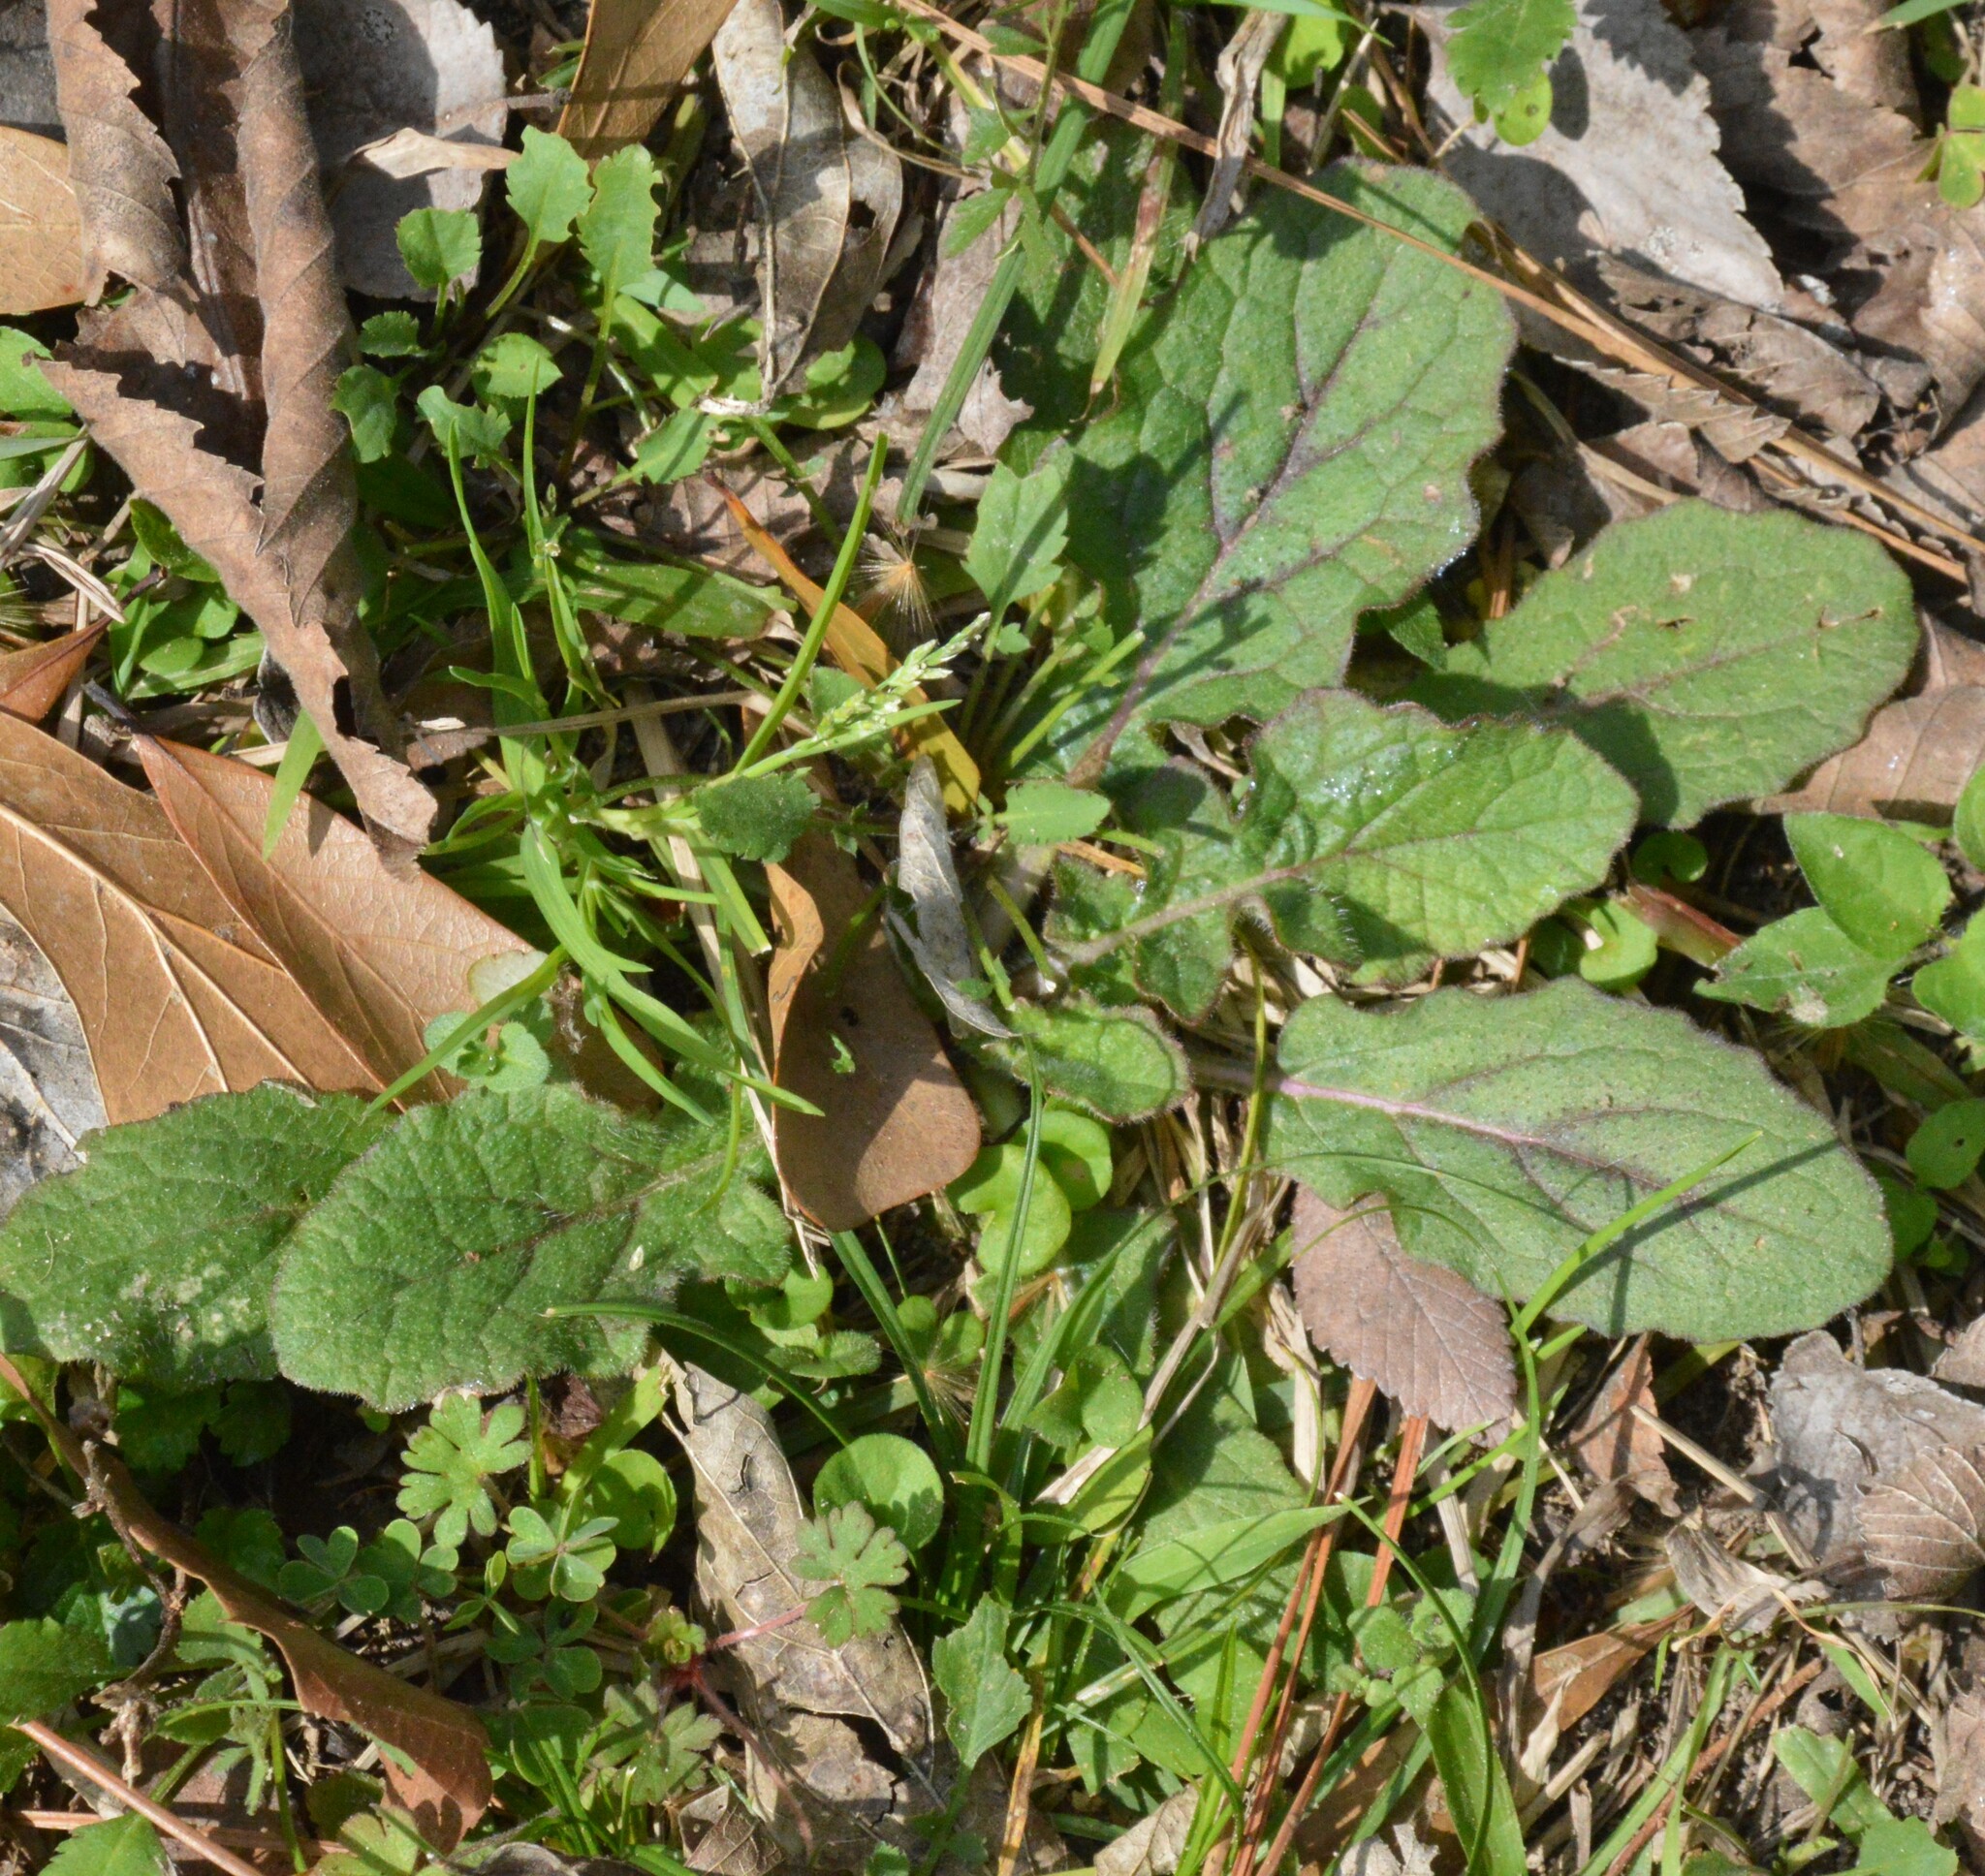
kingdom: Plantae
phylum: Tracheophyta
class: Magnoliopsida
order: Lamiales
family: Lamiaceae
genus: Salvia
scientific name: Salvia lyrata
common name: Cancerweed
